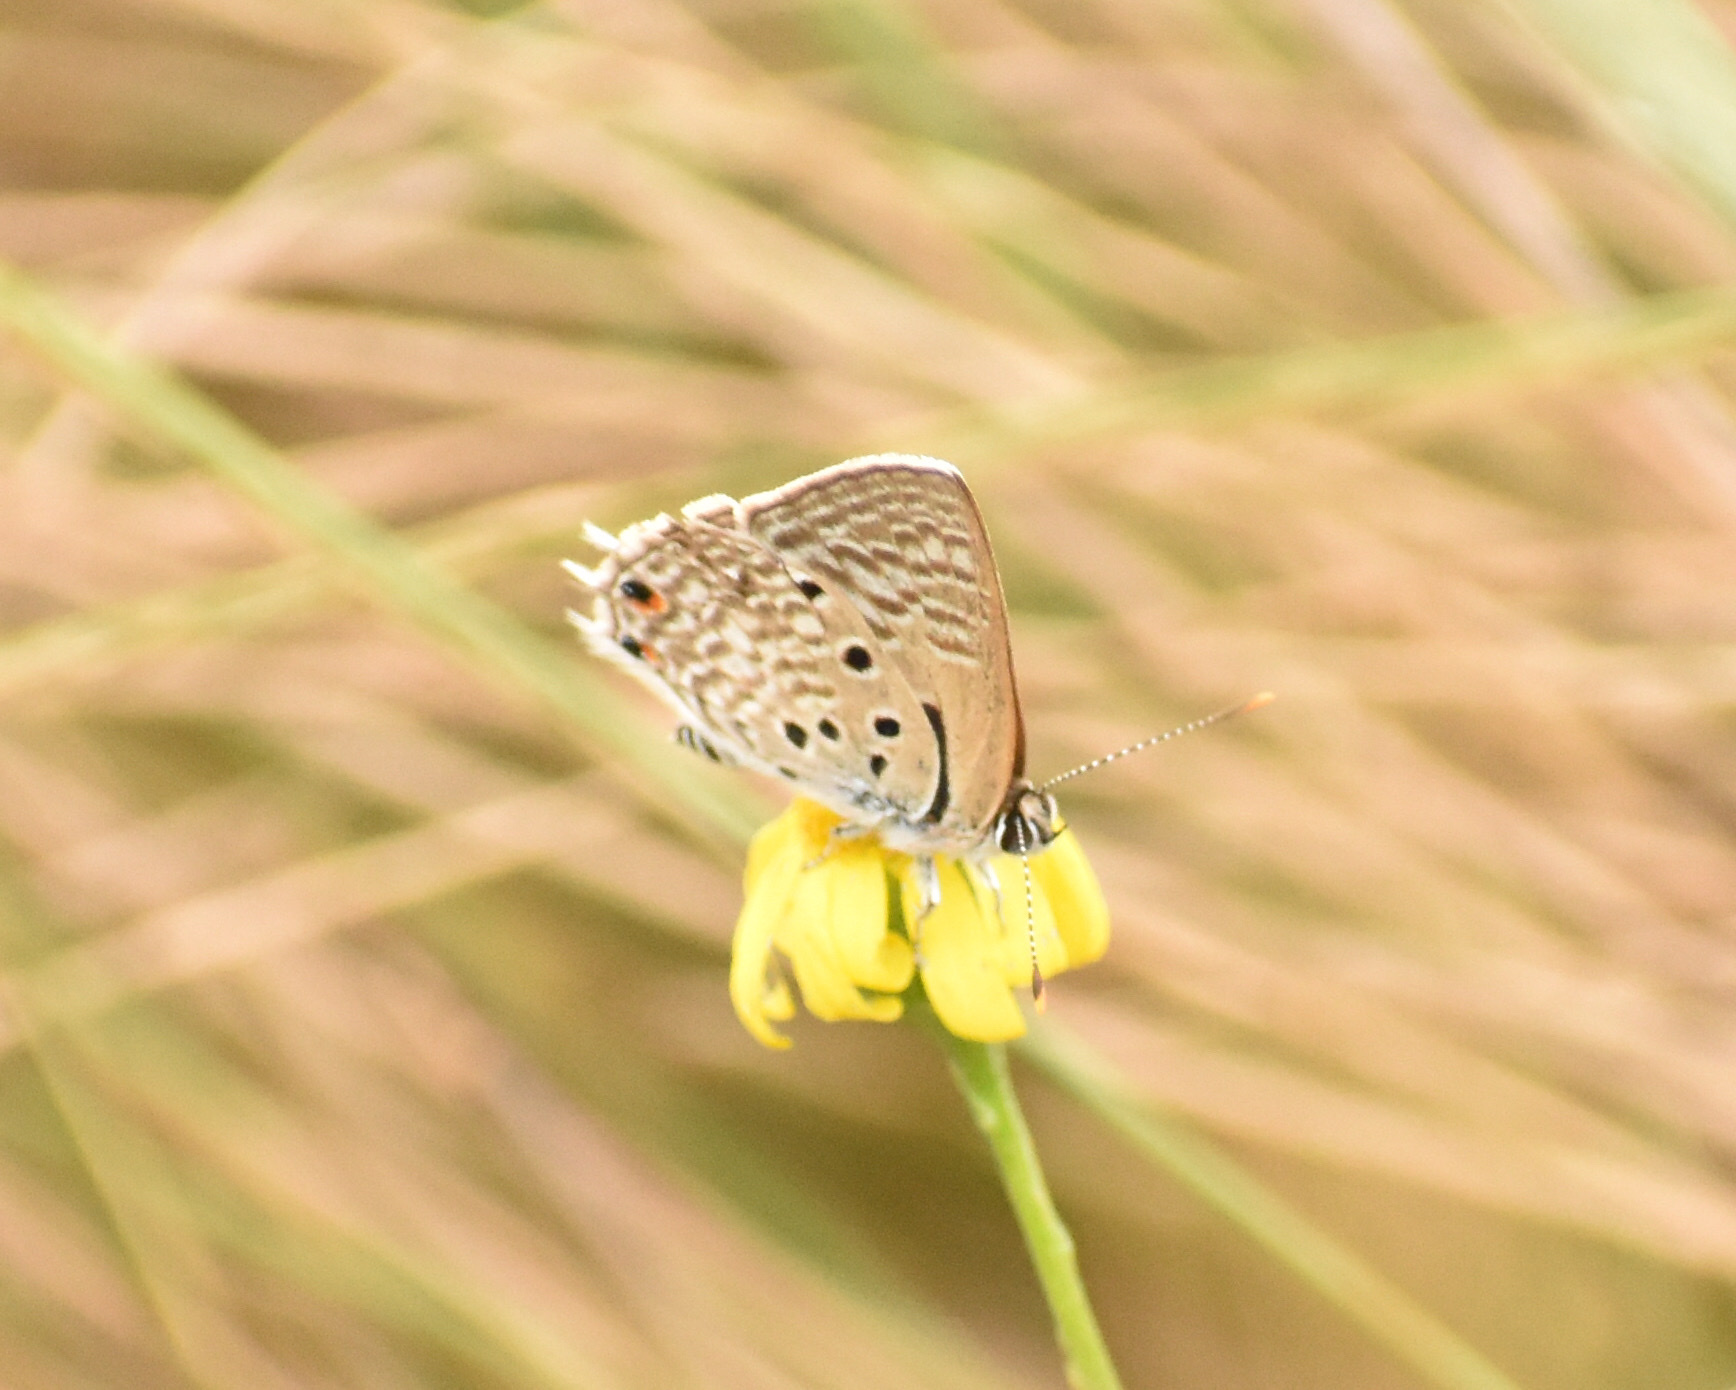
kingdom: Animalia
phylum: Arthropoda
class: Insecta
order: Lepidoptera
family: Lycaenidae
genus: Anthene
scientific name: Anthene amarah
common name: Black-striped hairtail
